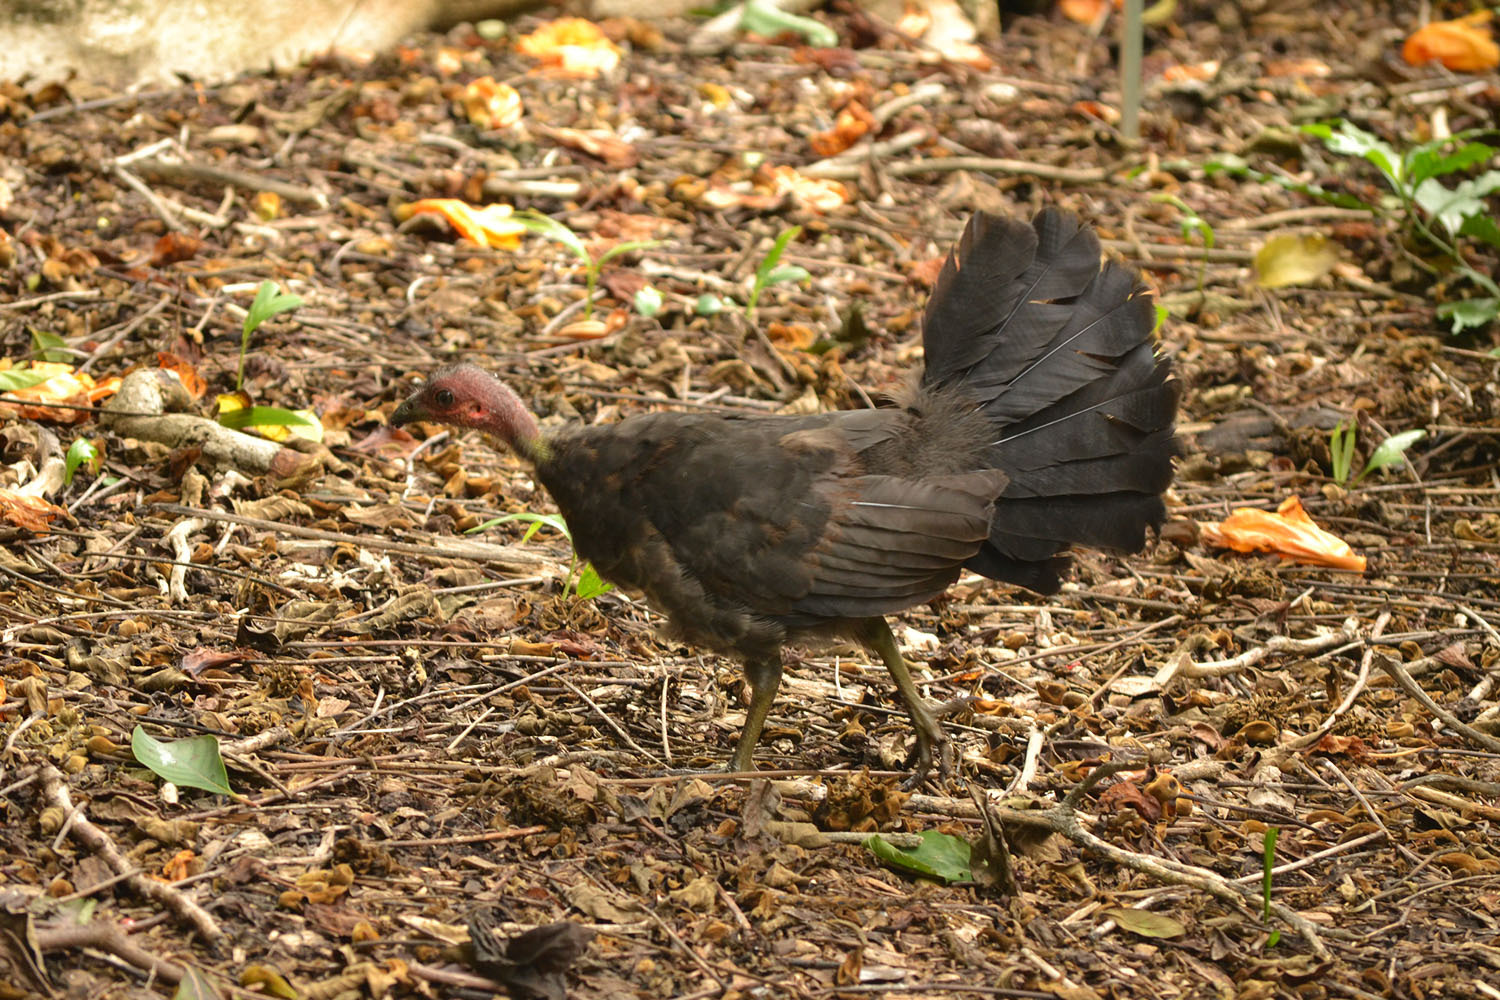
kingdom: Animalia
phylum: Chordata
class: Aves
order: Galliformes
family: Megapodiidae
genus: Alectura
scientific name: Alectura lathami
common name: Australian brushturkey
